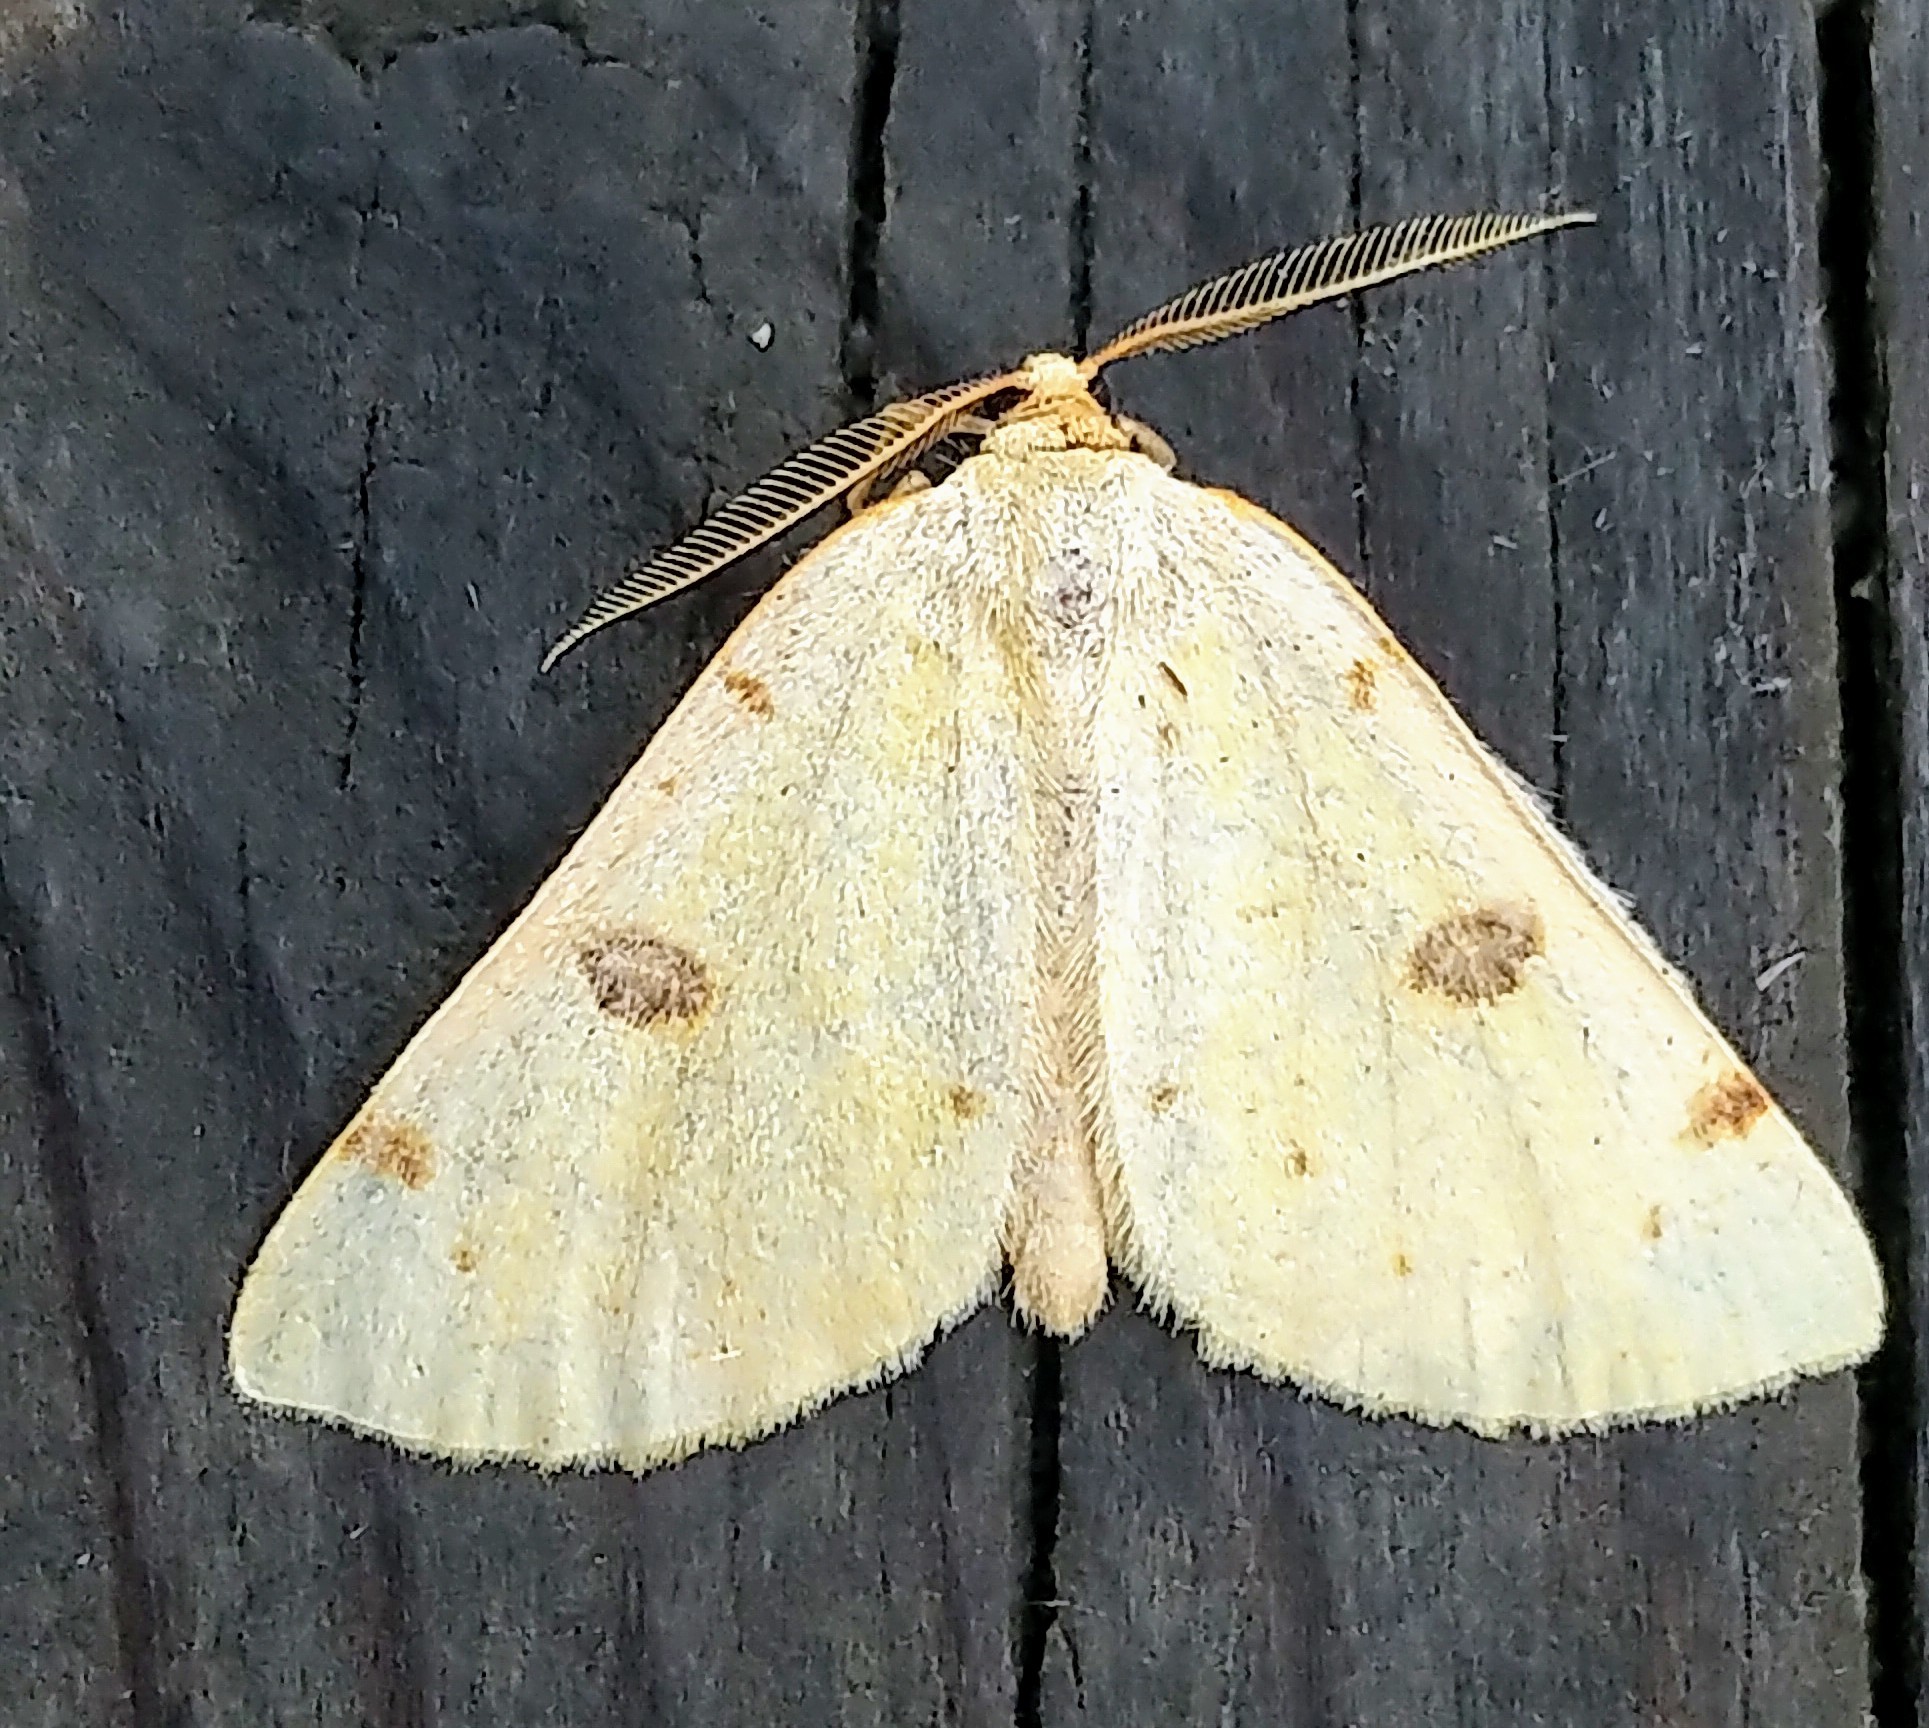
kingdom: Animalia
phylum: Arthropoda
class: Insecta
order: Lepidoptera
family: Geometridae
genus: Hesperumia
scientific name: Hesperumia sulphuraria
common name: Sulphur moth
